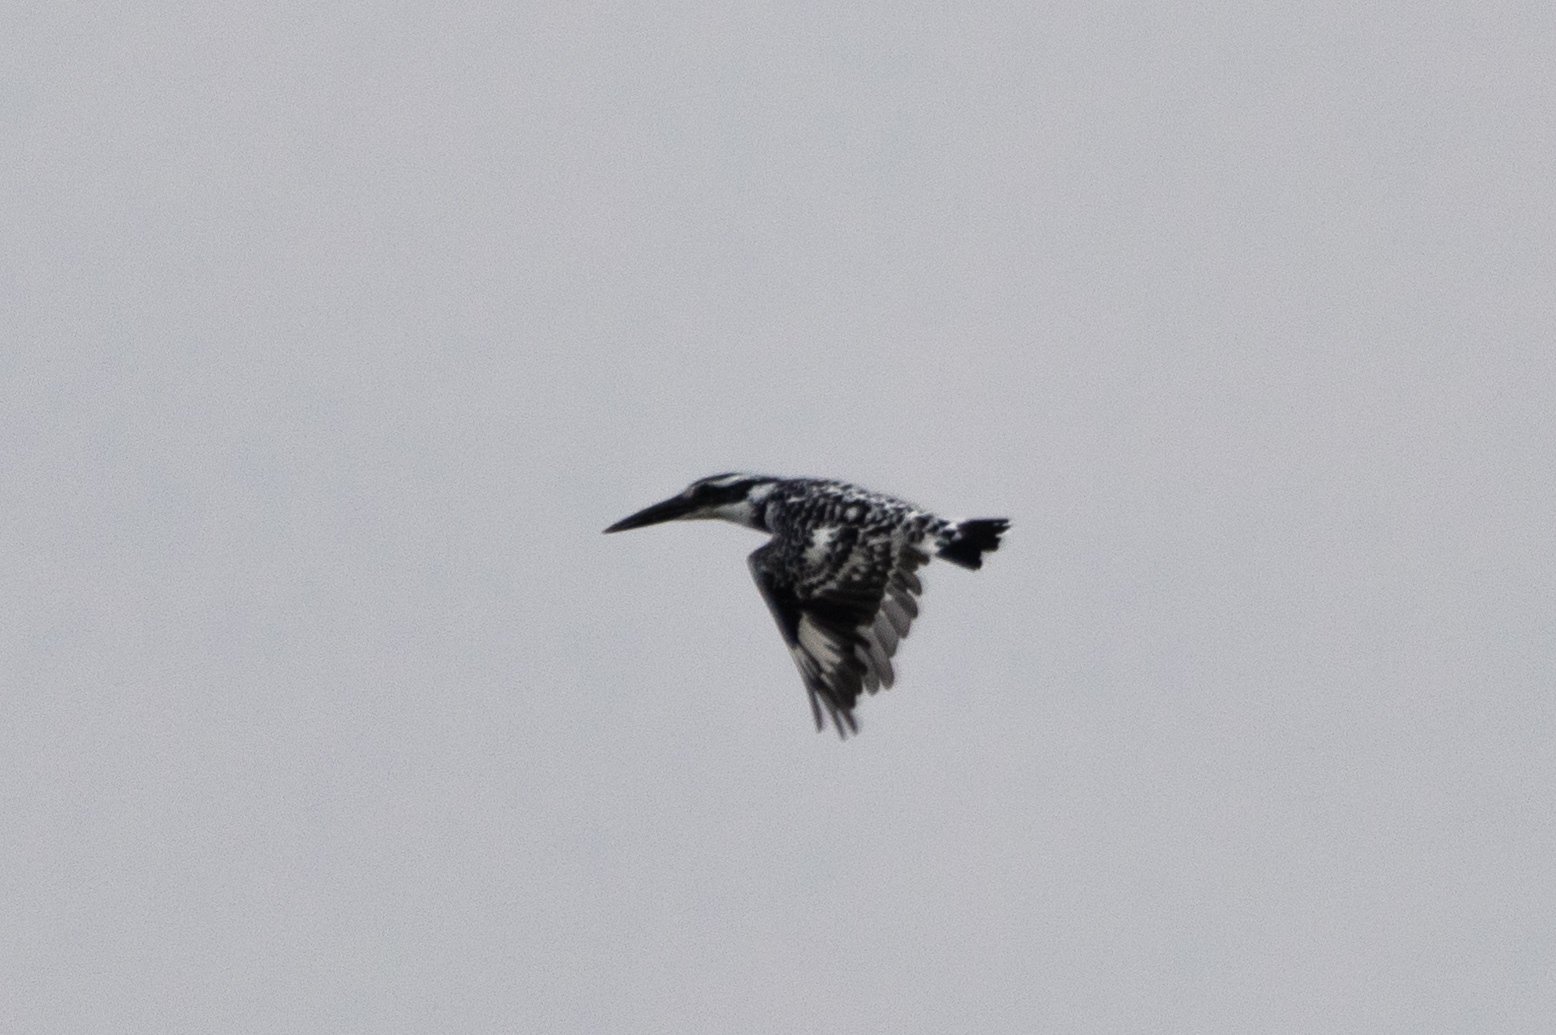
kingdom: Animalia
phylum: Chordata
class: Aves
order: Coraciiformes
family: Alcedinidae
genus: Ceryle
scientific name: Ceryle rudis
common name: Pied kingfisher
